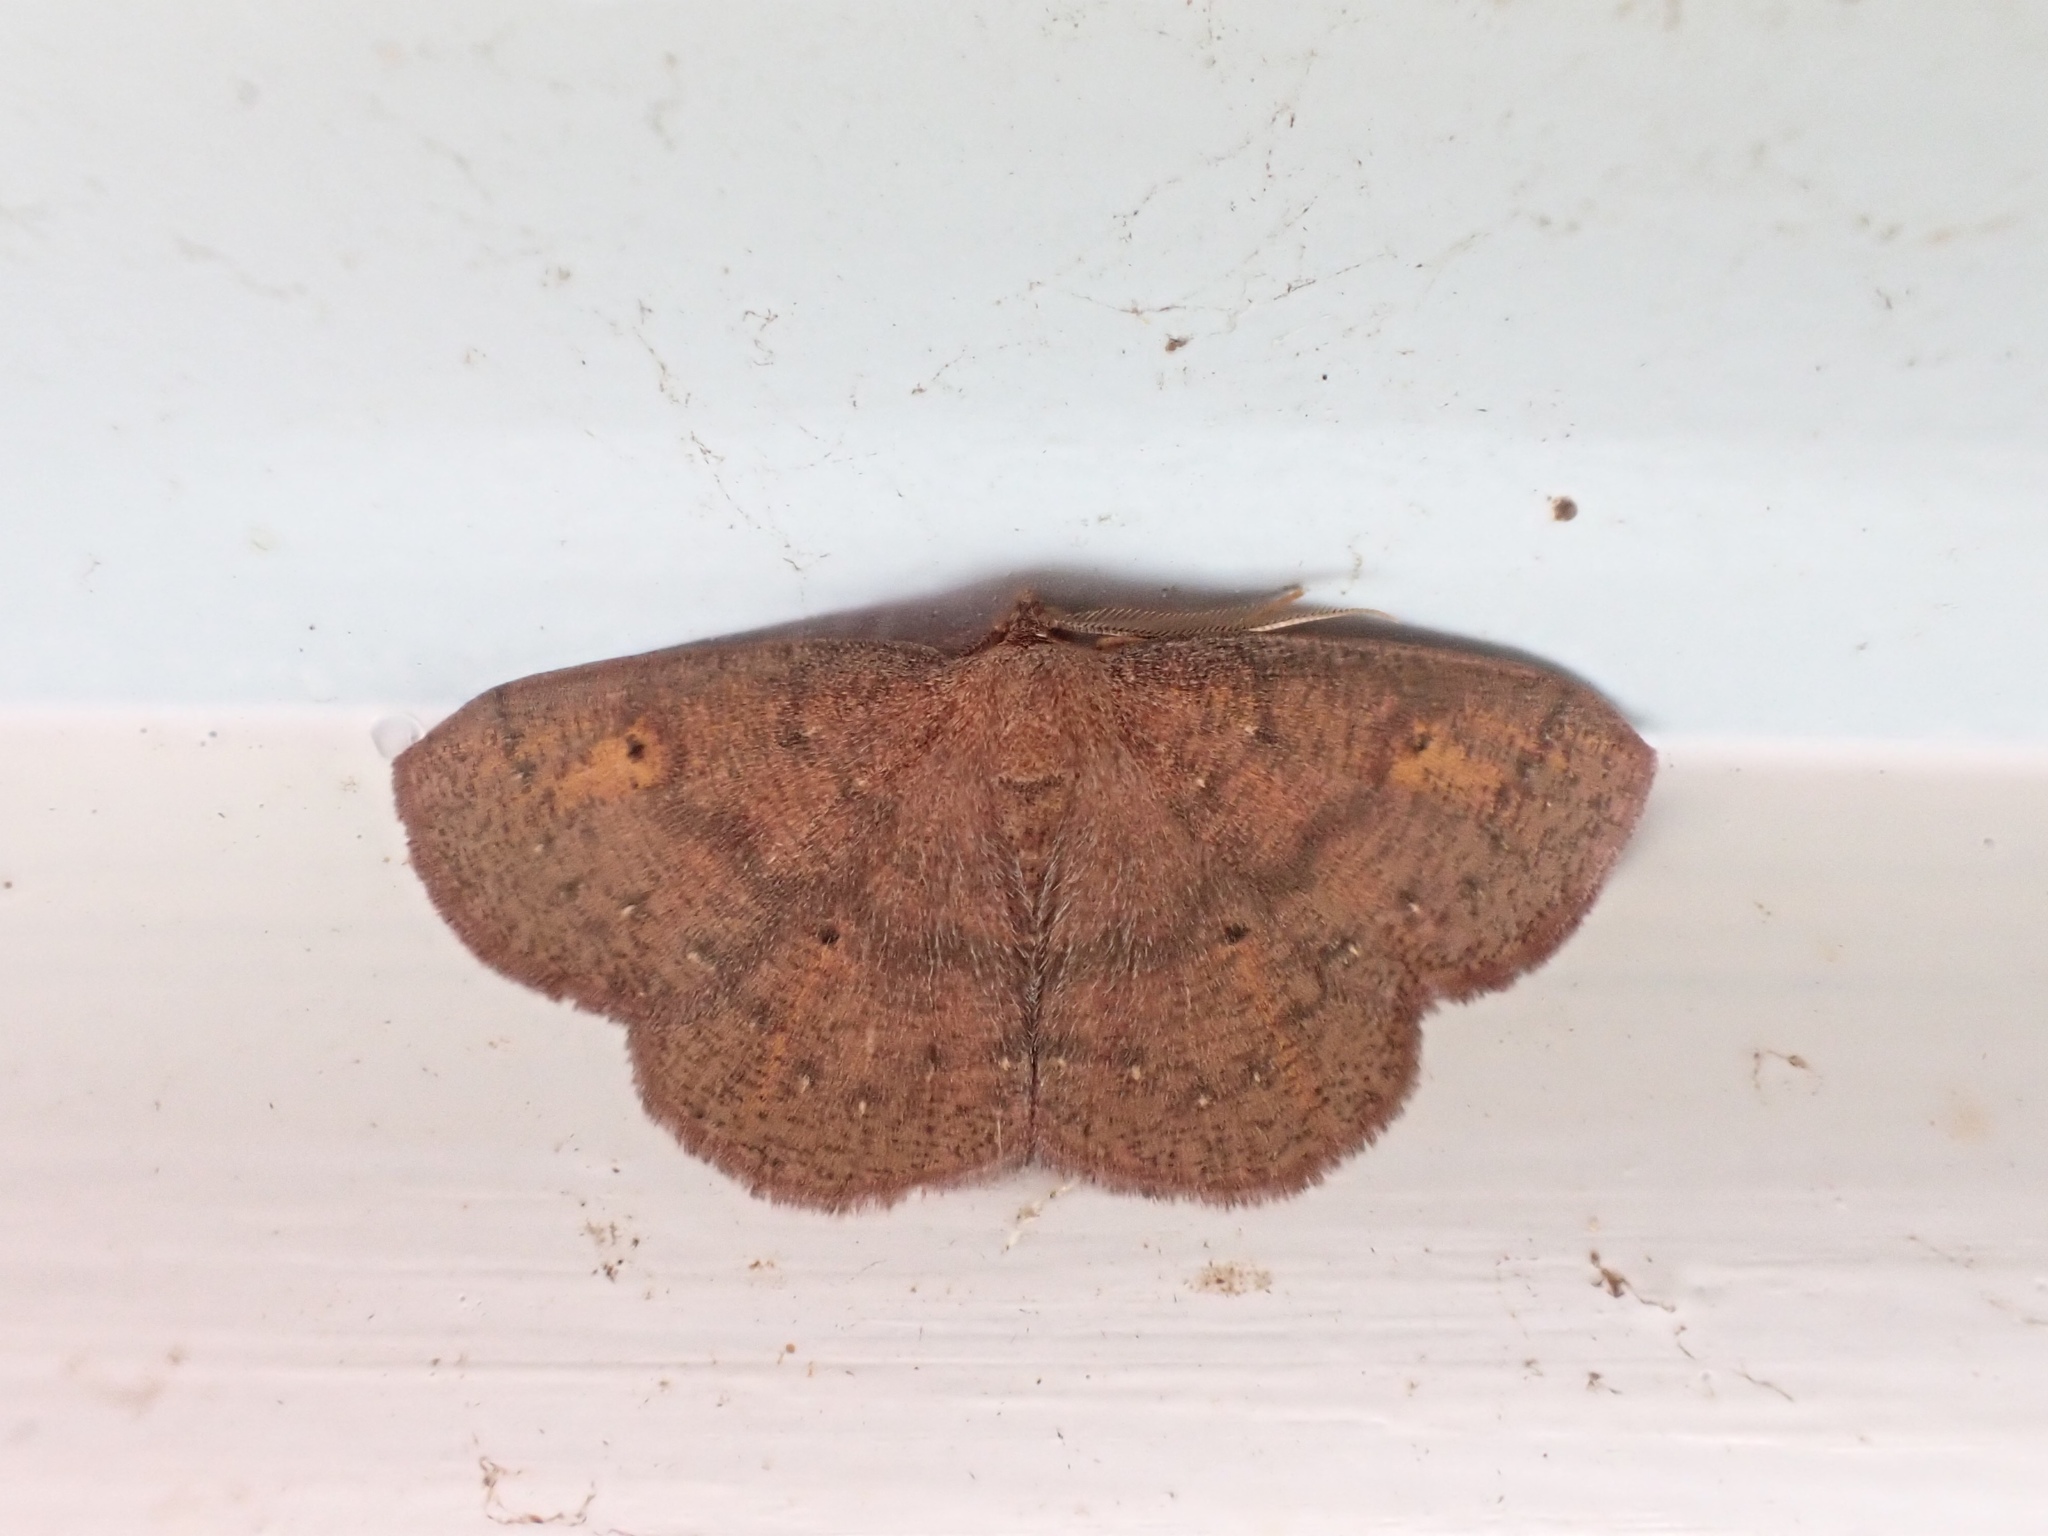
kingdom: Animalia
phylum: Arthropoda
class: Insecta
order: Lepidoptera
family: Geometridae
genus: Ilexia
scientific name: Ilexia intractata
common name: Black-dotted ruddy moth
